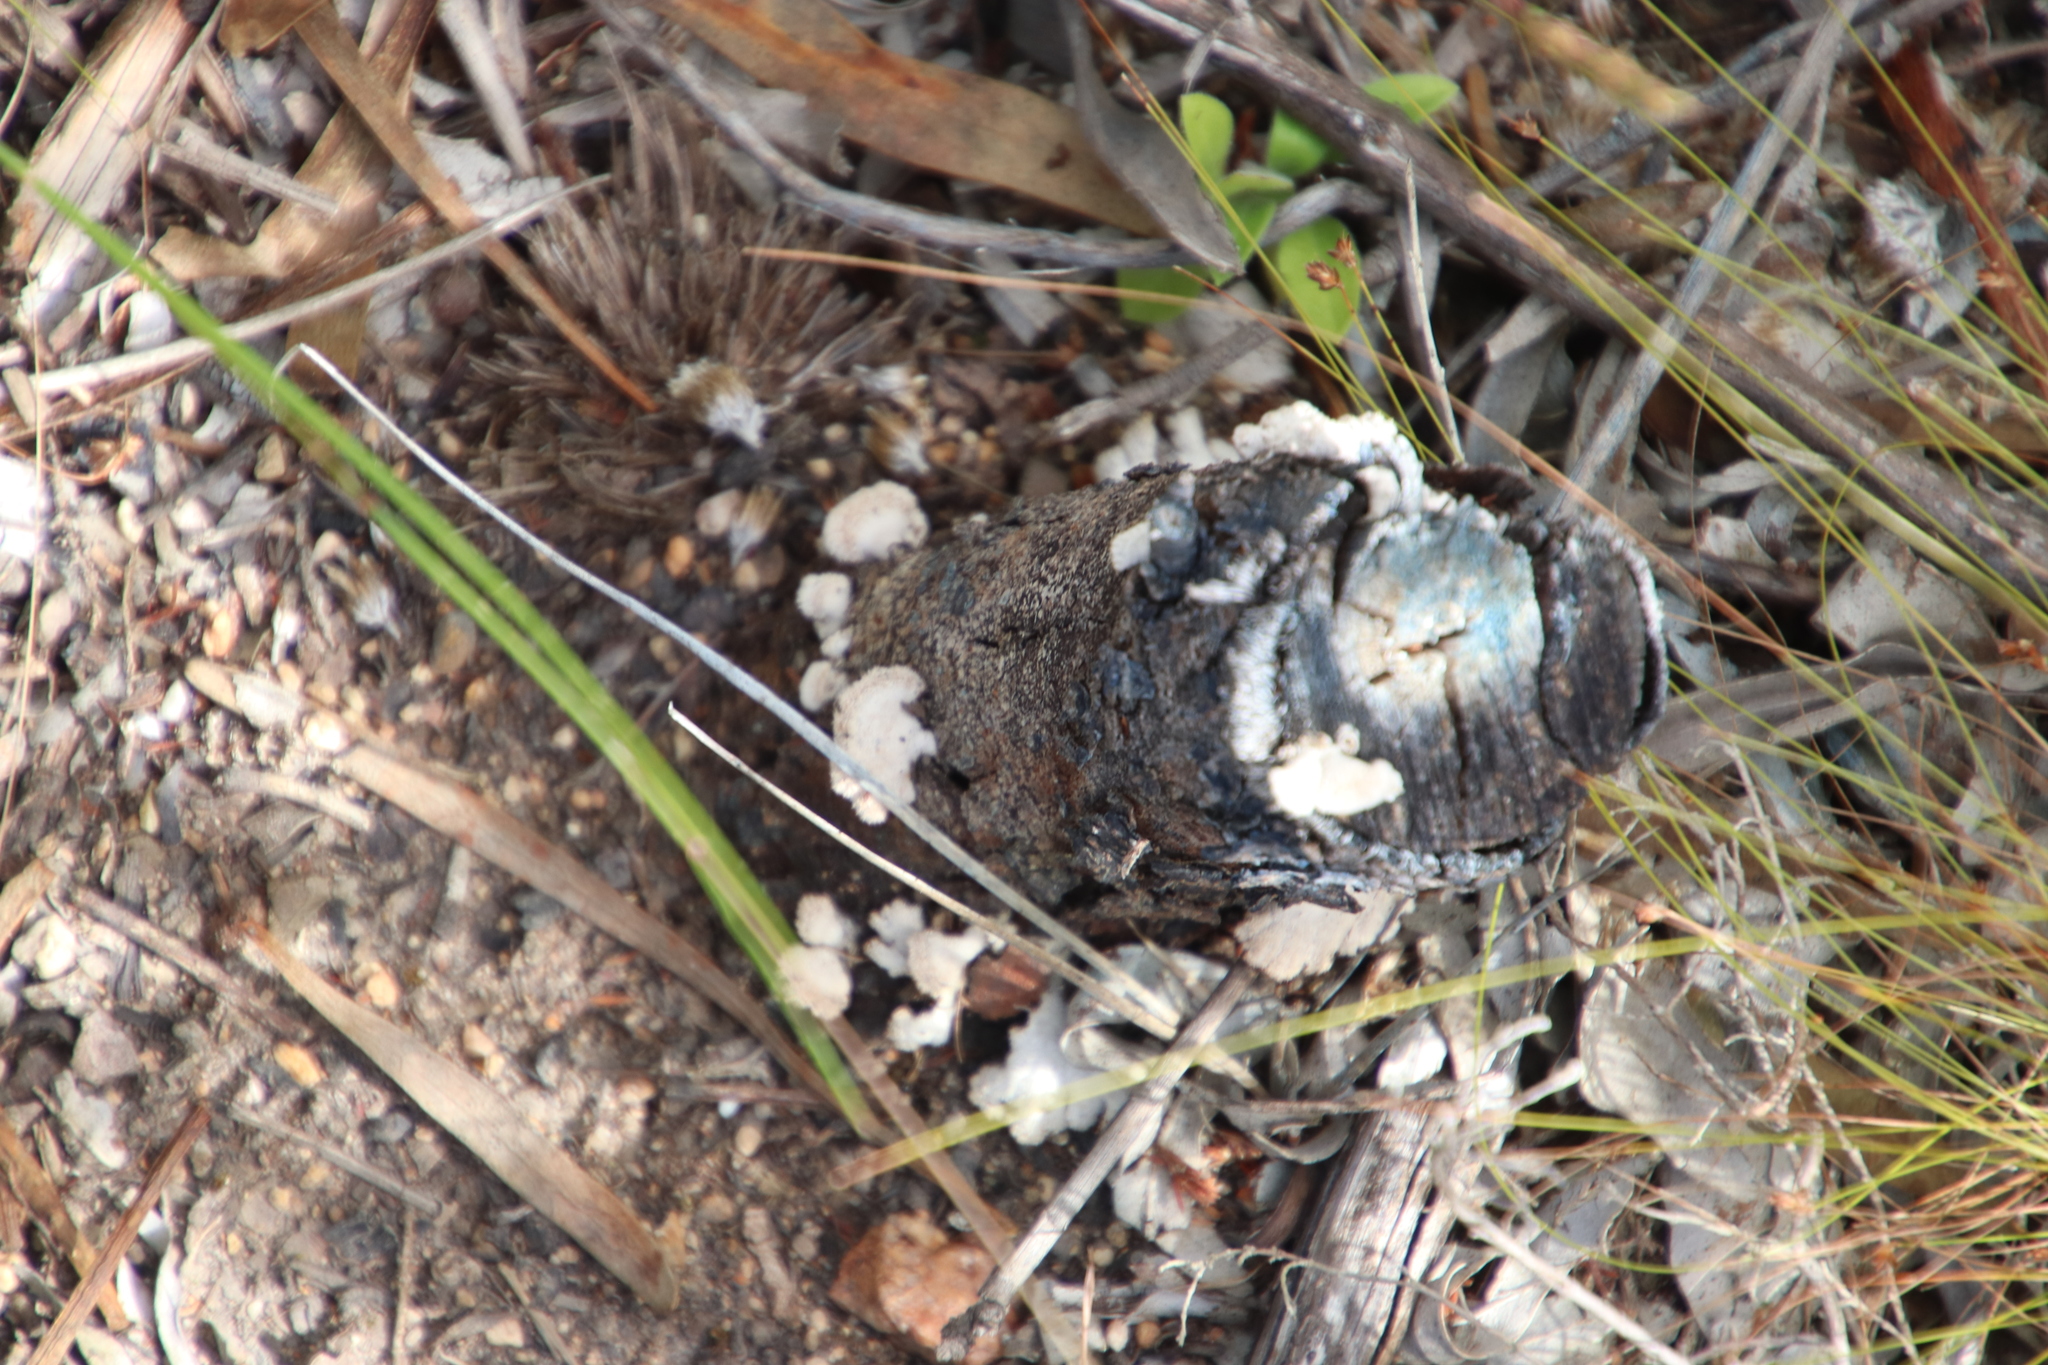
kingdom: Fungi
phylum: Basidiomycota
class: Agaricomycetes
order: Agaricales
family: Schizophyllaceae
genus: Schizophyllum
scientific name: Schizophyllum commune
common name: Common porecrust
